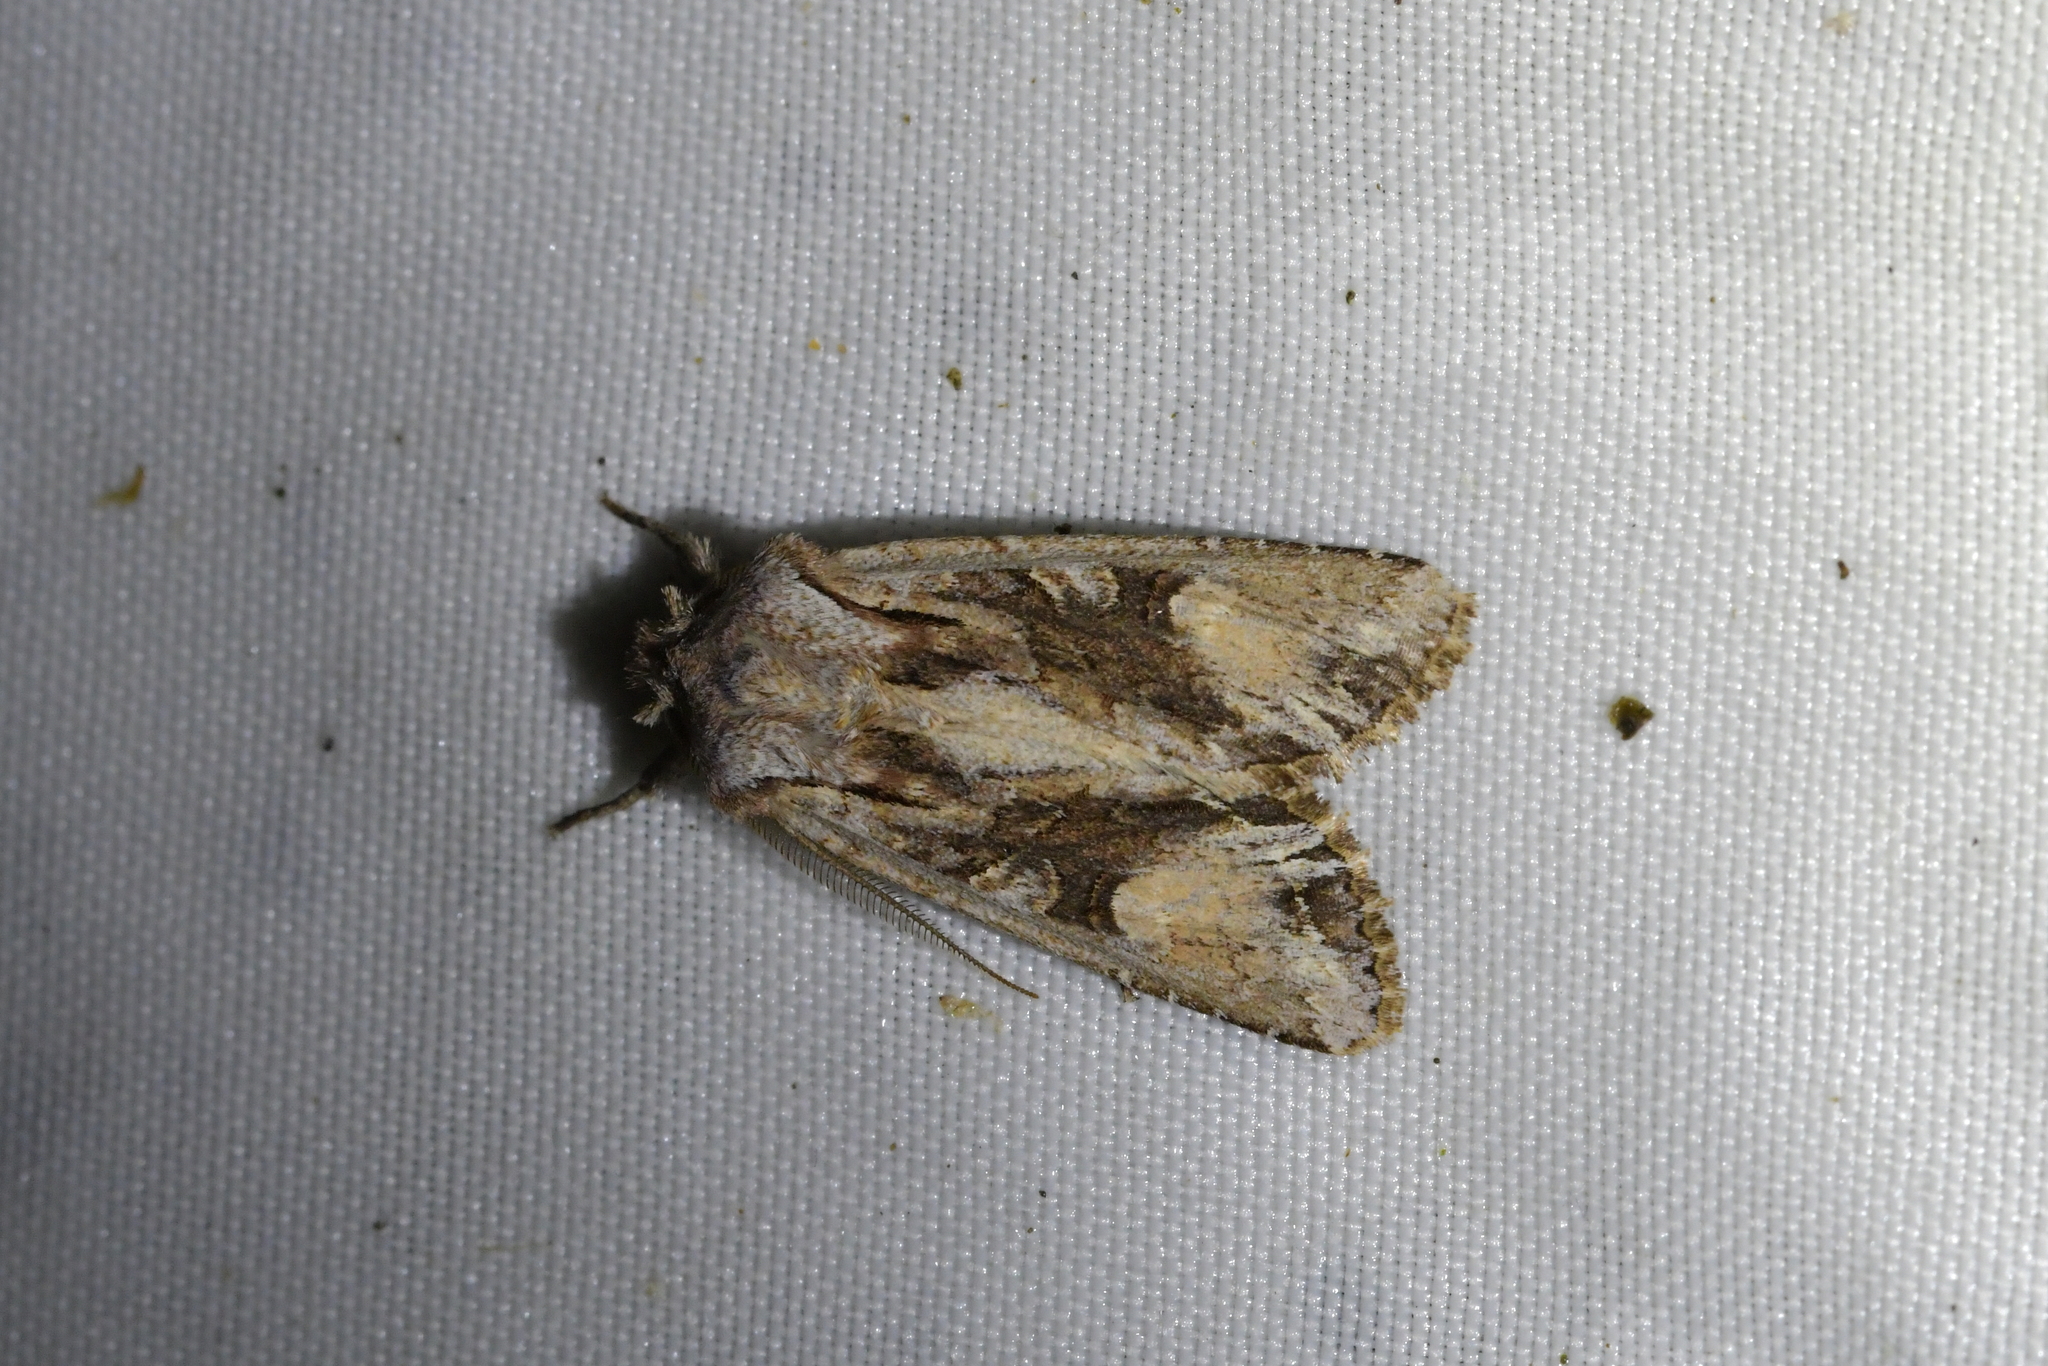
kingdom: Animalia
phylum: Arthropoda
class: Insecta
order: Lepidoptera
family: Noctuidae
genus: Ichneutica
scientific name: Ichneutica
